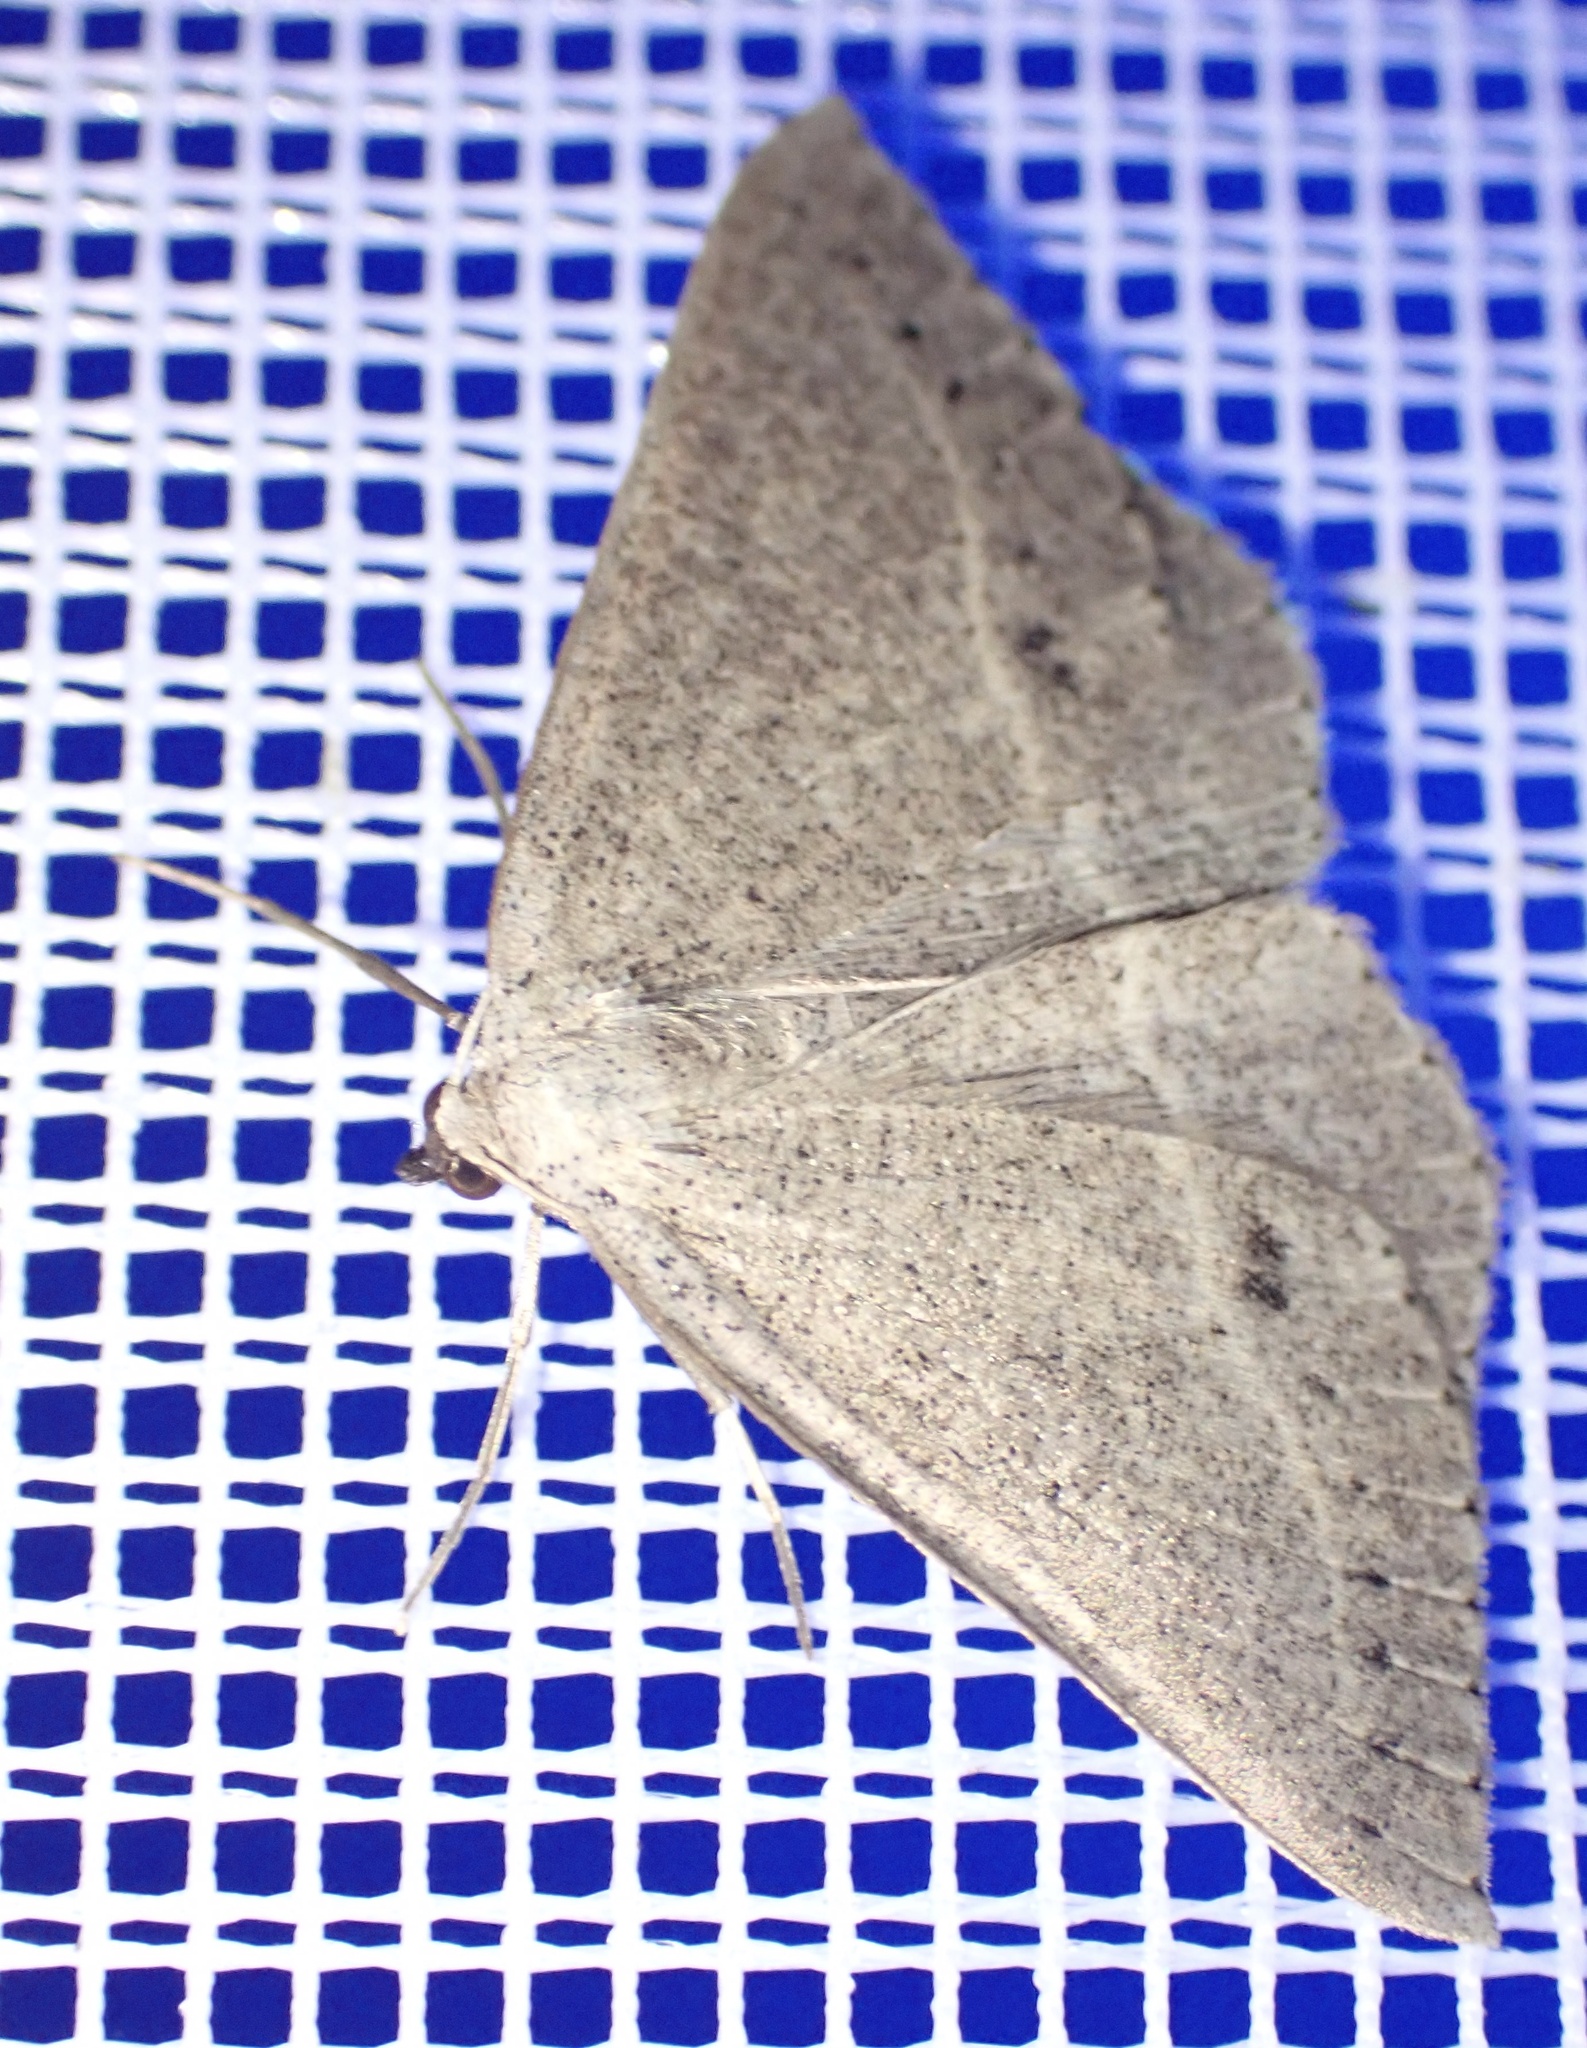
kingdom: Animalia
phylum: Arthropoda
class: Insecta
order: Lepidoptera
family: Geometridae
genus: Taxeotis
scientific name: Taxeotis egenata
